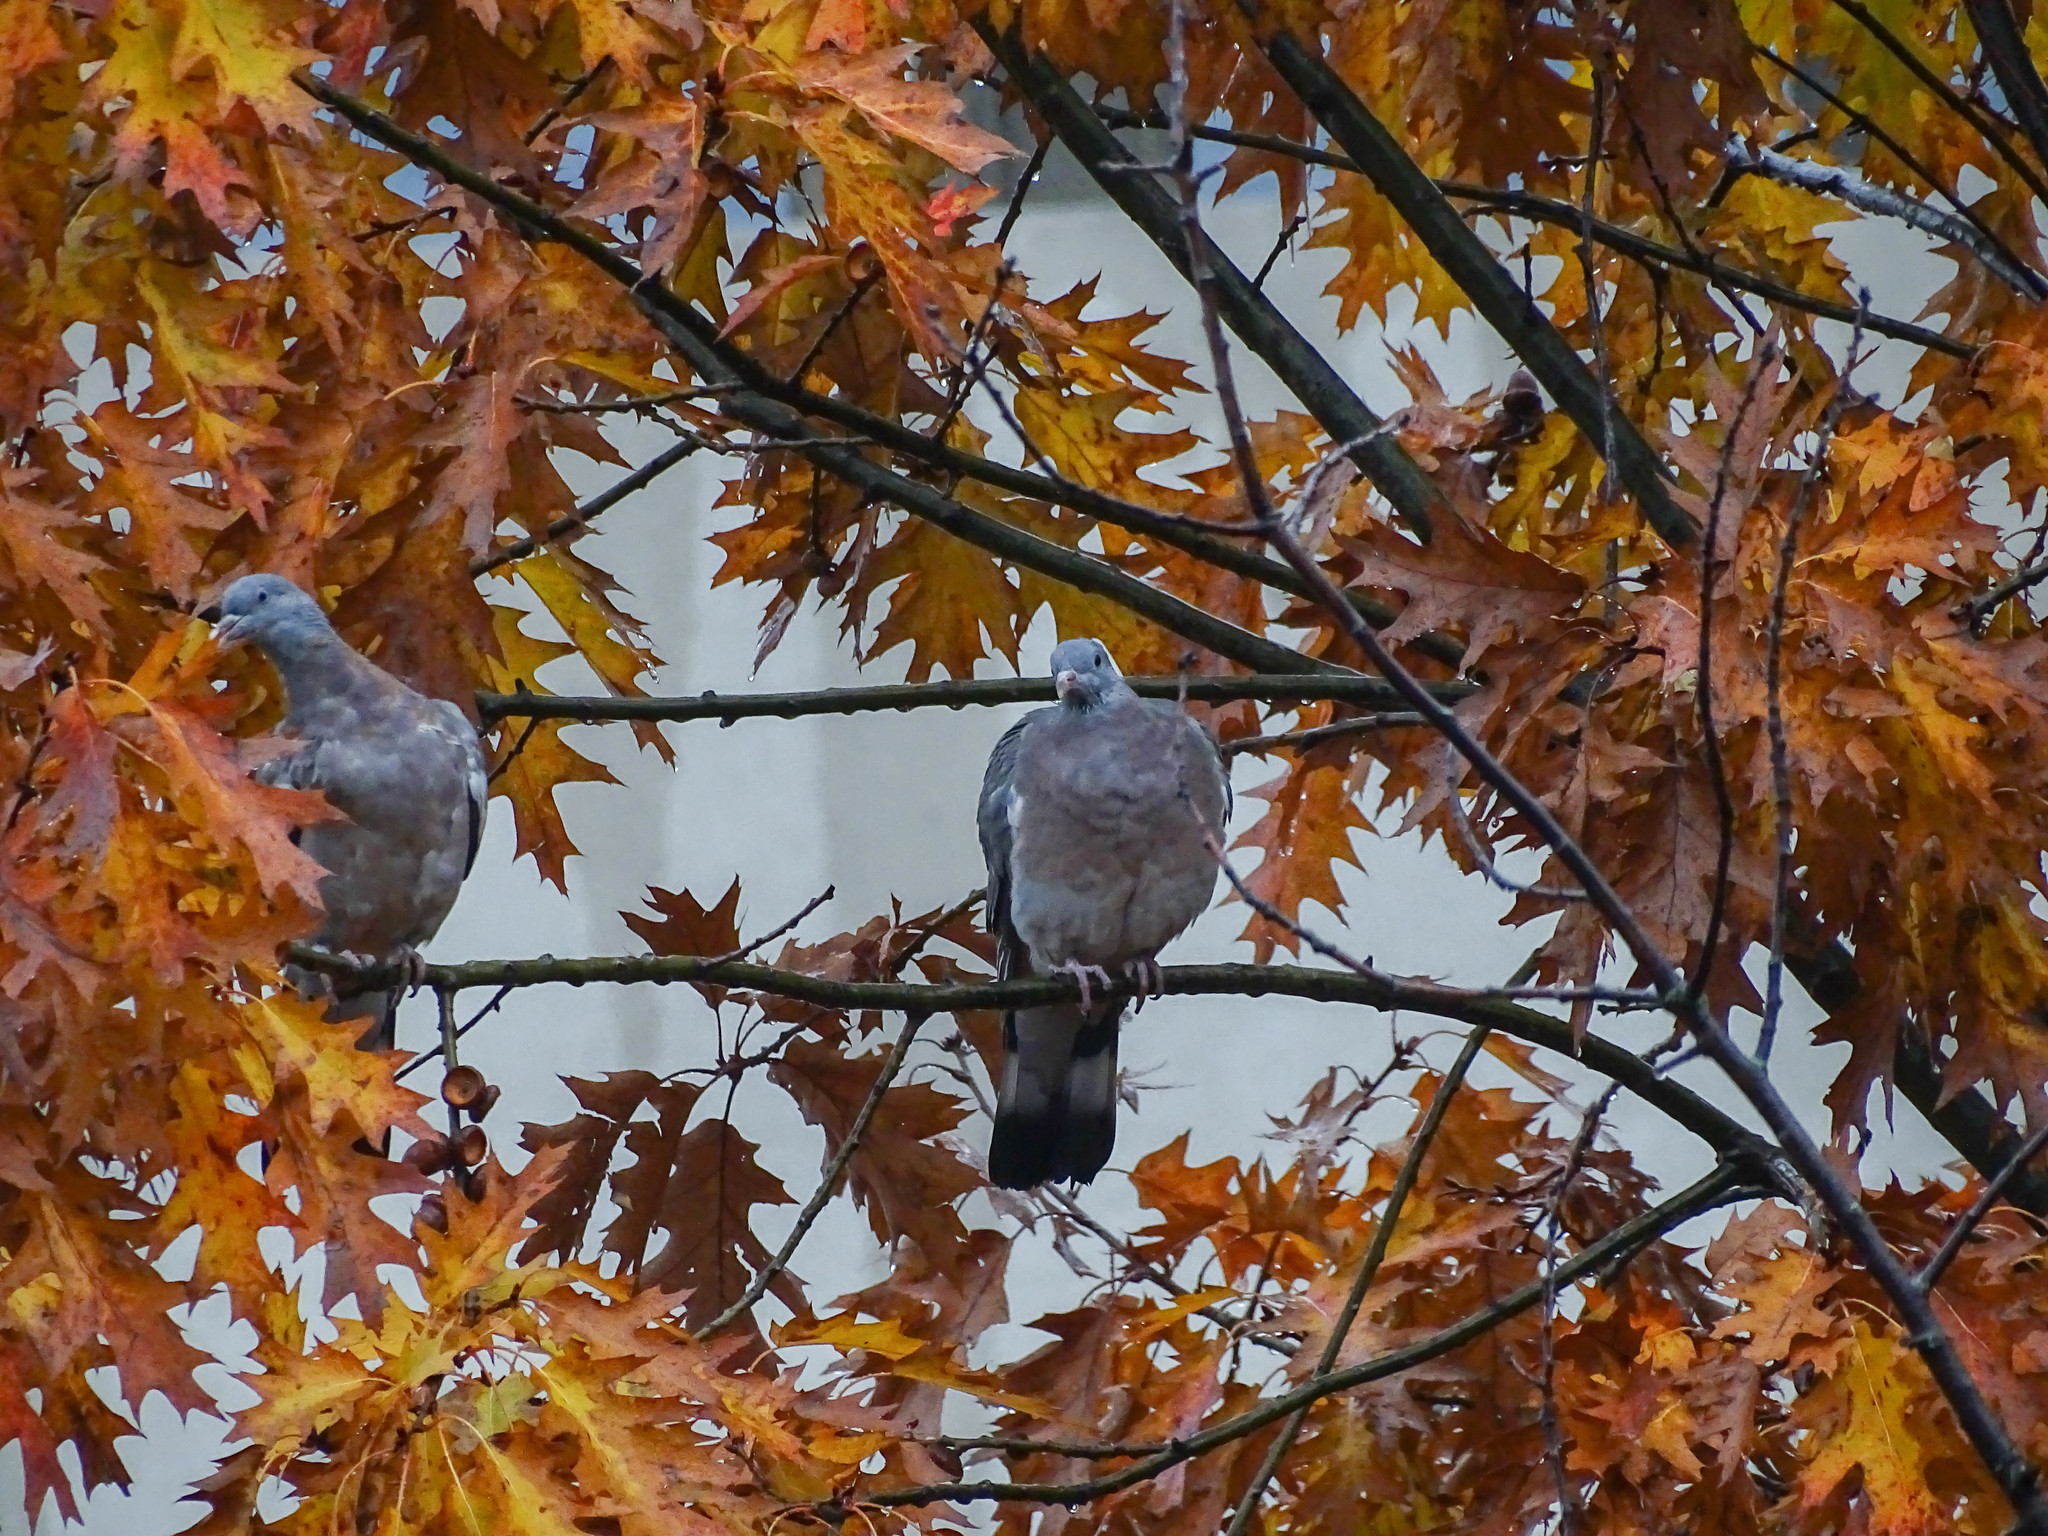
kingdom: Animalia
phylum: Chordata
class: Aves
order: Columbiformes
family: Columbidae
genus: Columba
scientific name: Columba palumbus
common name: Common wood pigeon
